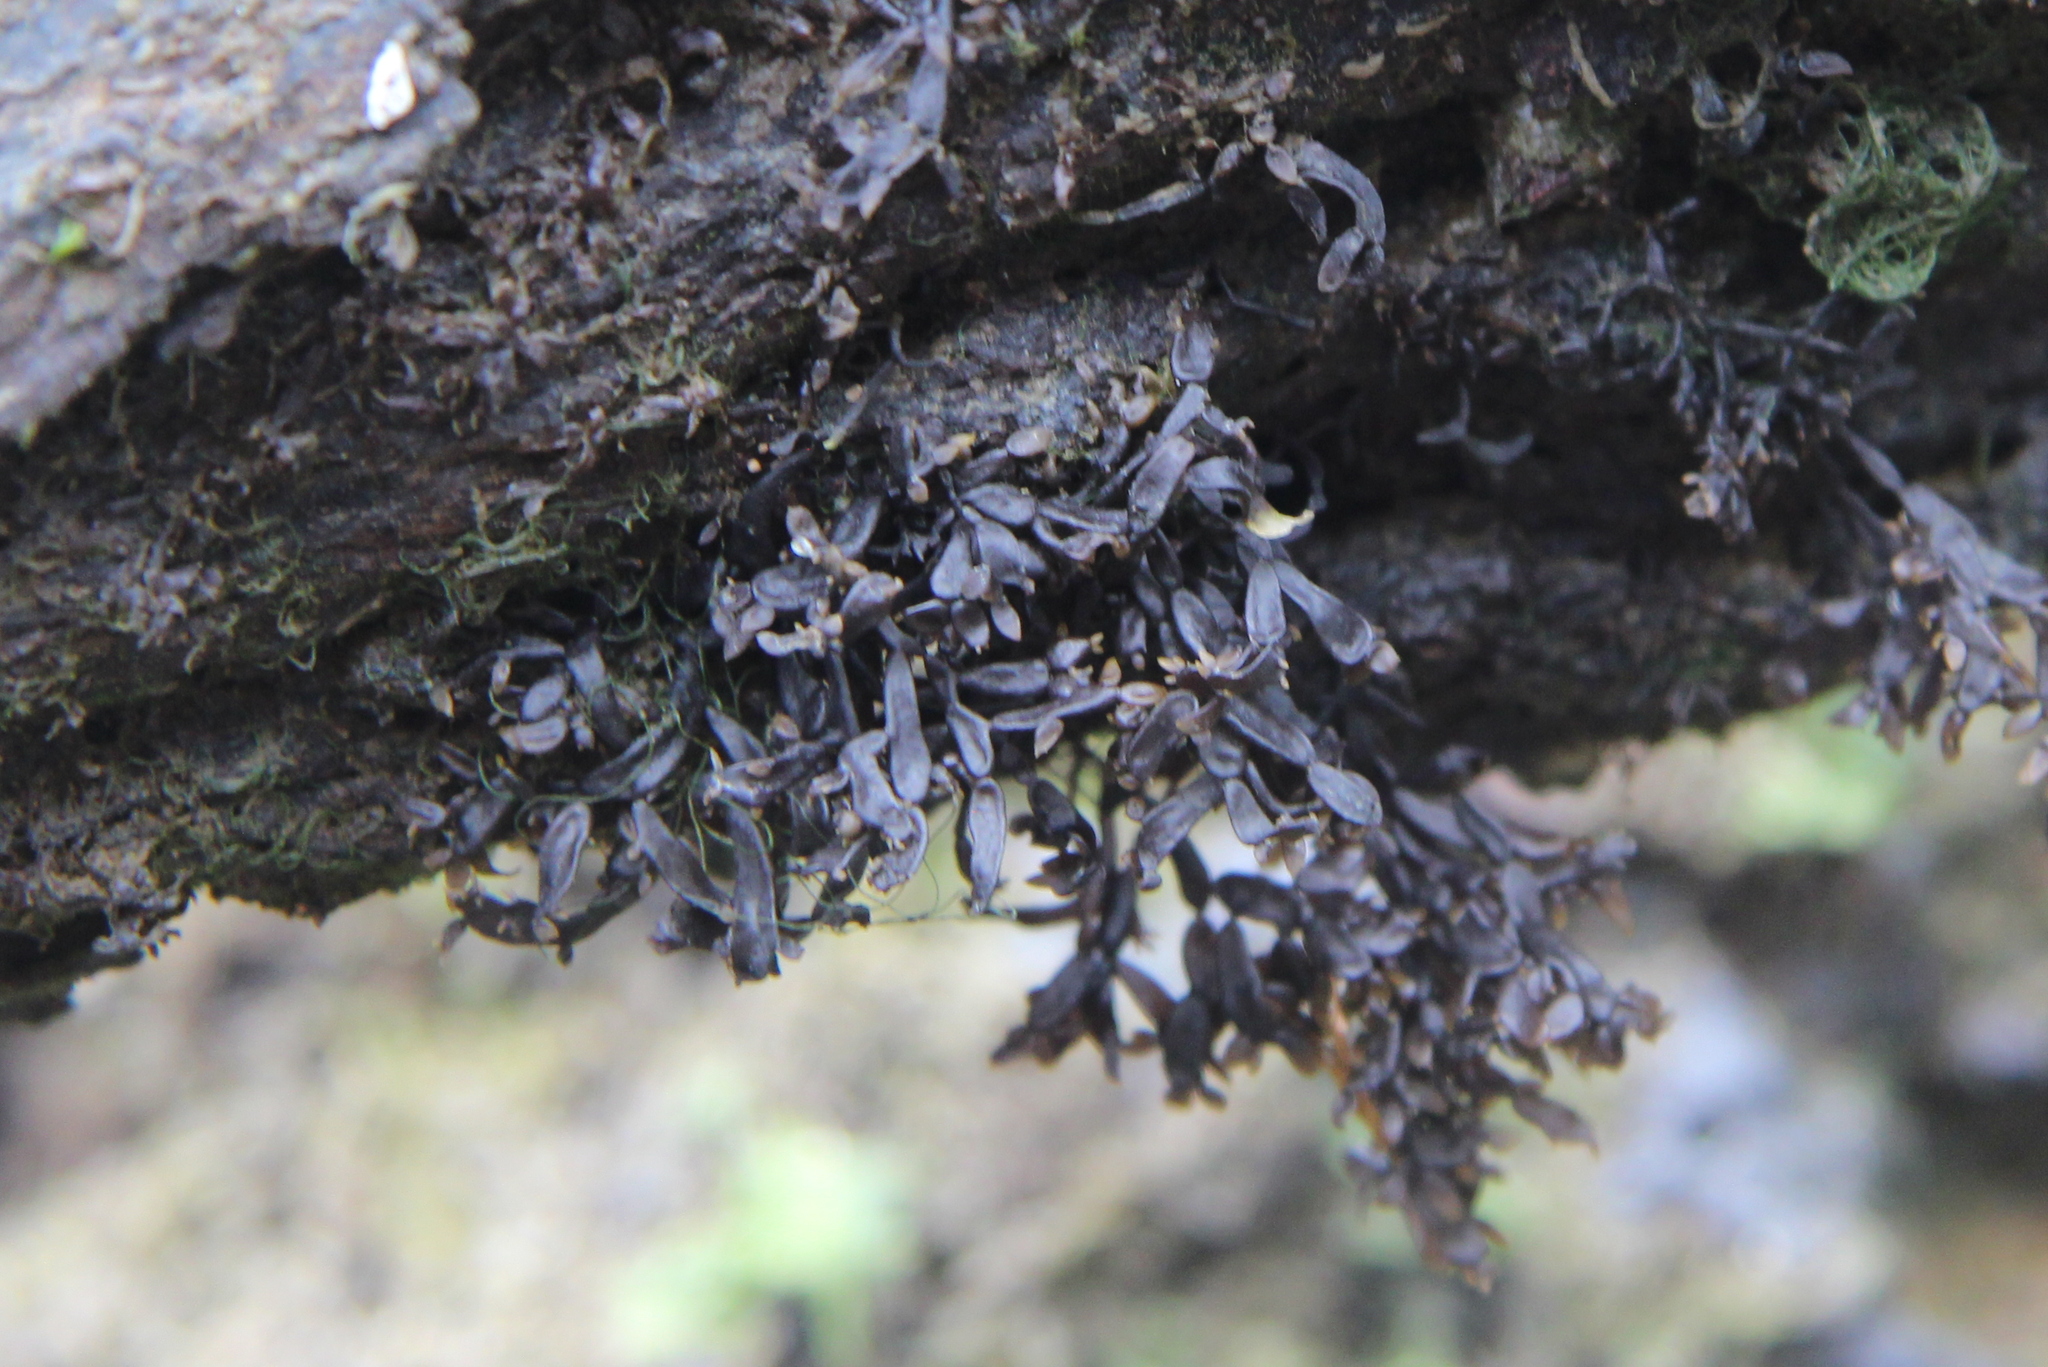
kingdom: Plantae
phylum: Rhodophyta
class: Florideophyceae
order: Gigartinales
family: Caulacanthaceae
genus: Catenella
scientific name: Catenella nipae
